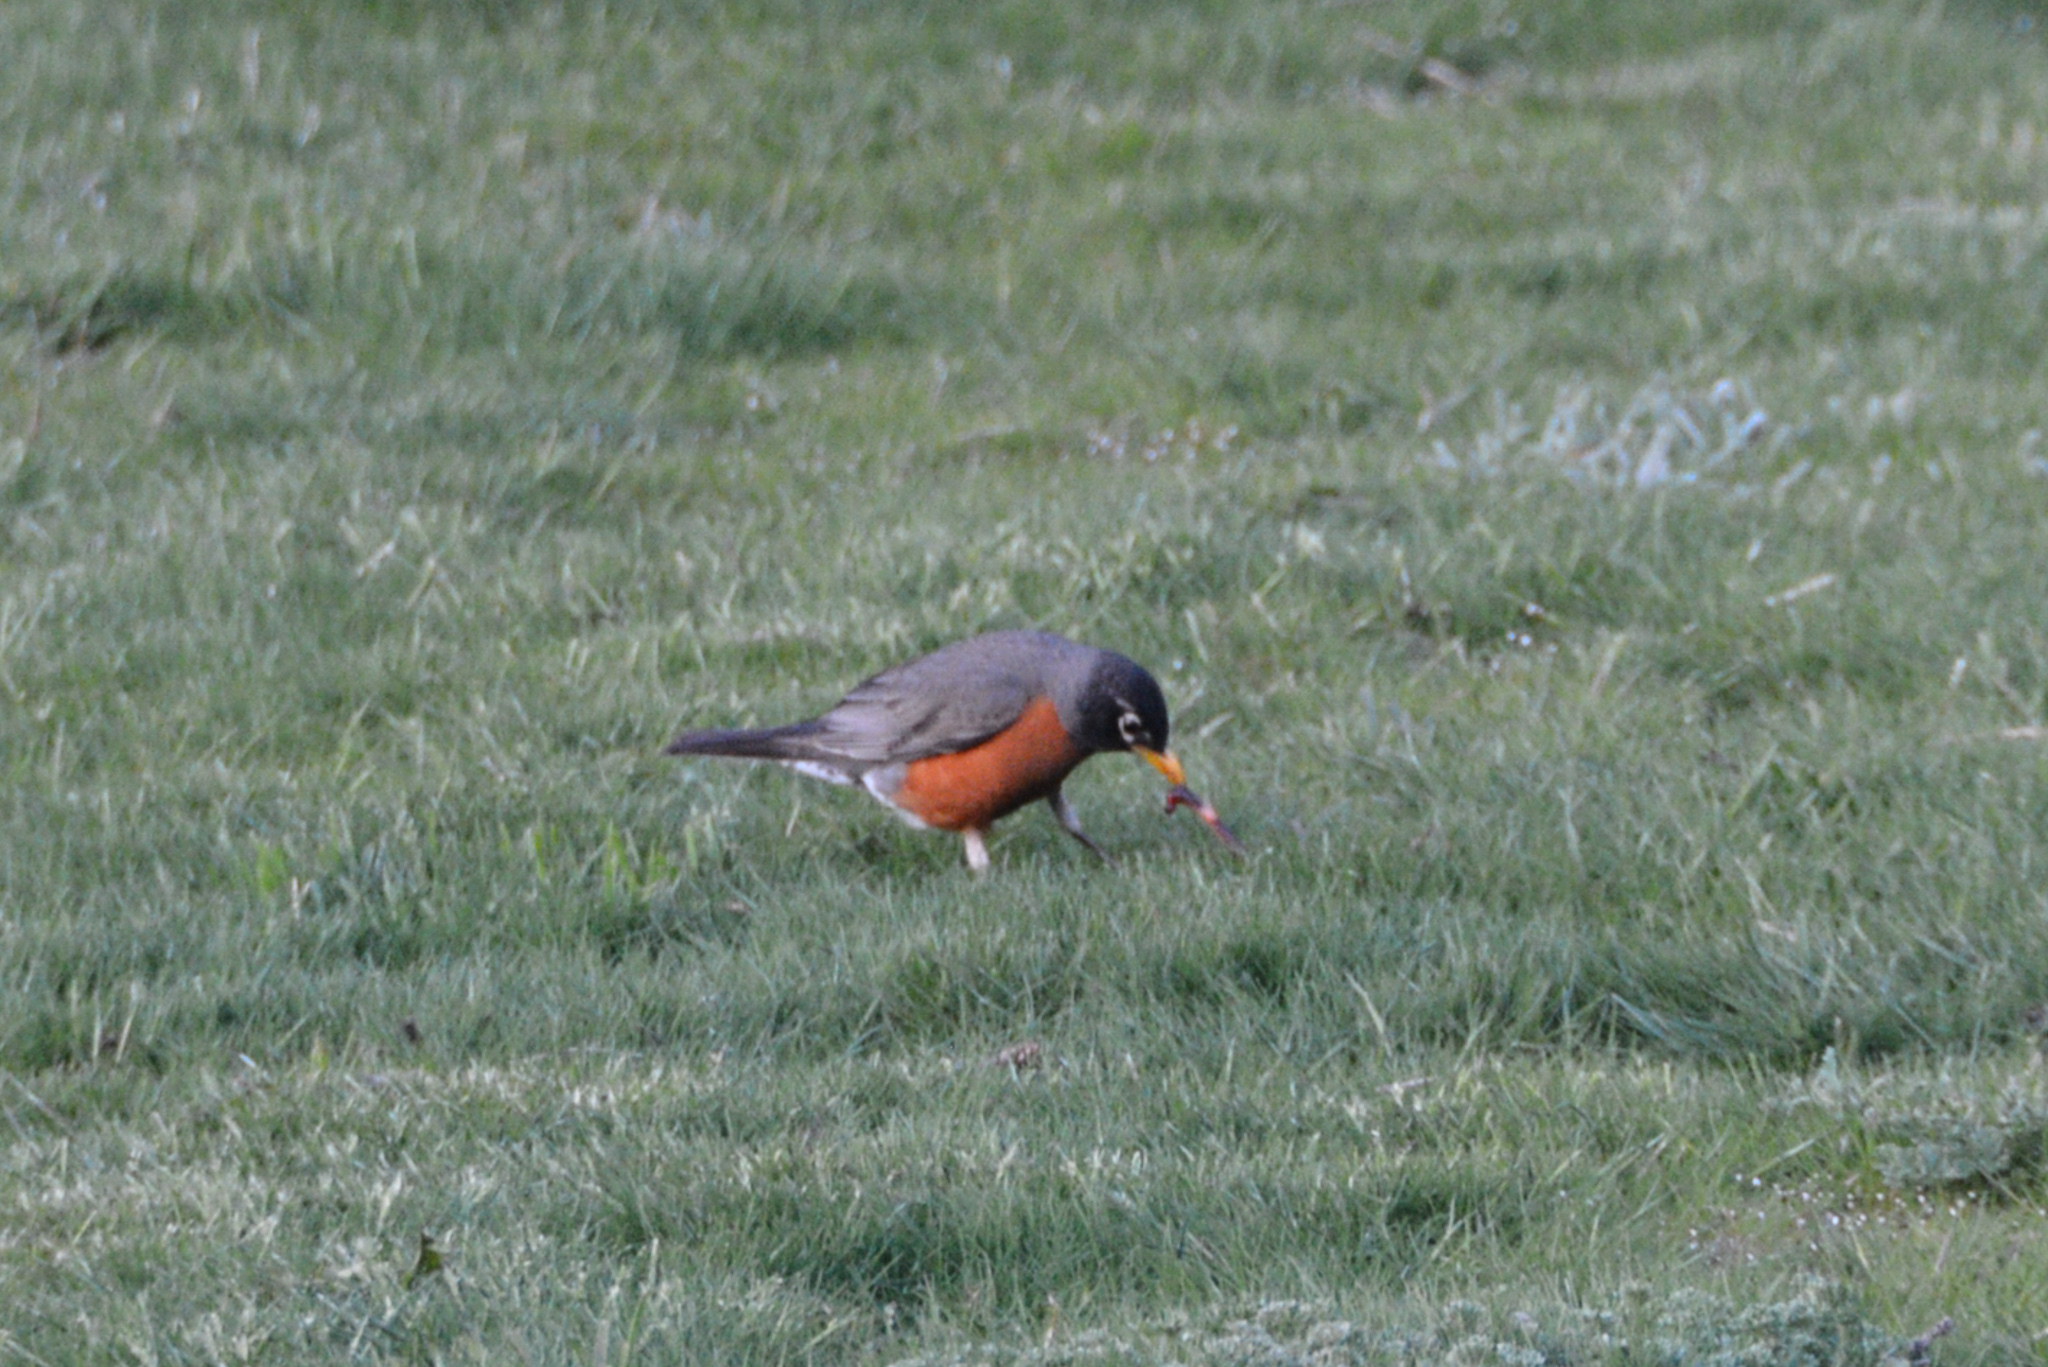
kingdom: Animalia
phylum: Chordata
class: Aves
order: Passeriformes
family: Turdidae
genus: Turdus
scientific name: Turdus migratorius
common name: American robin
